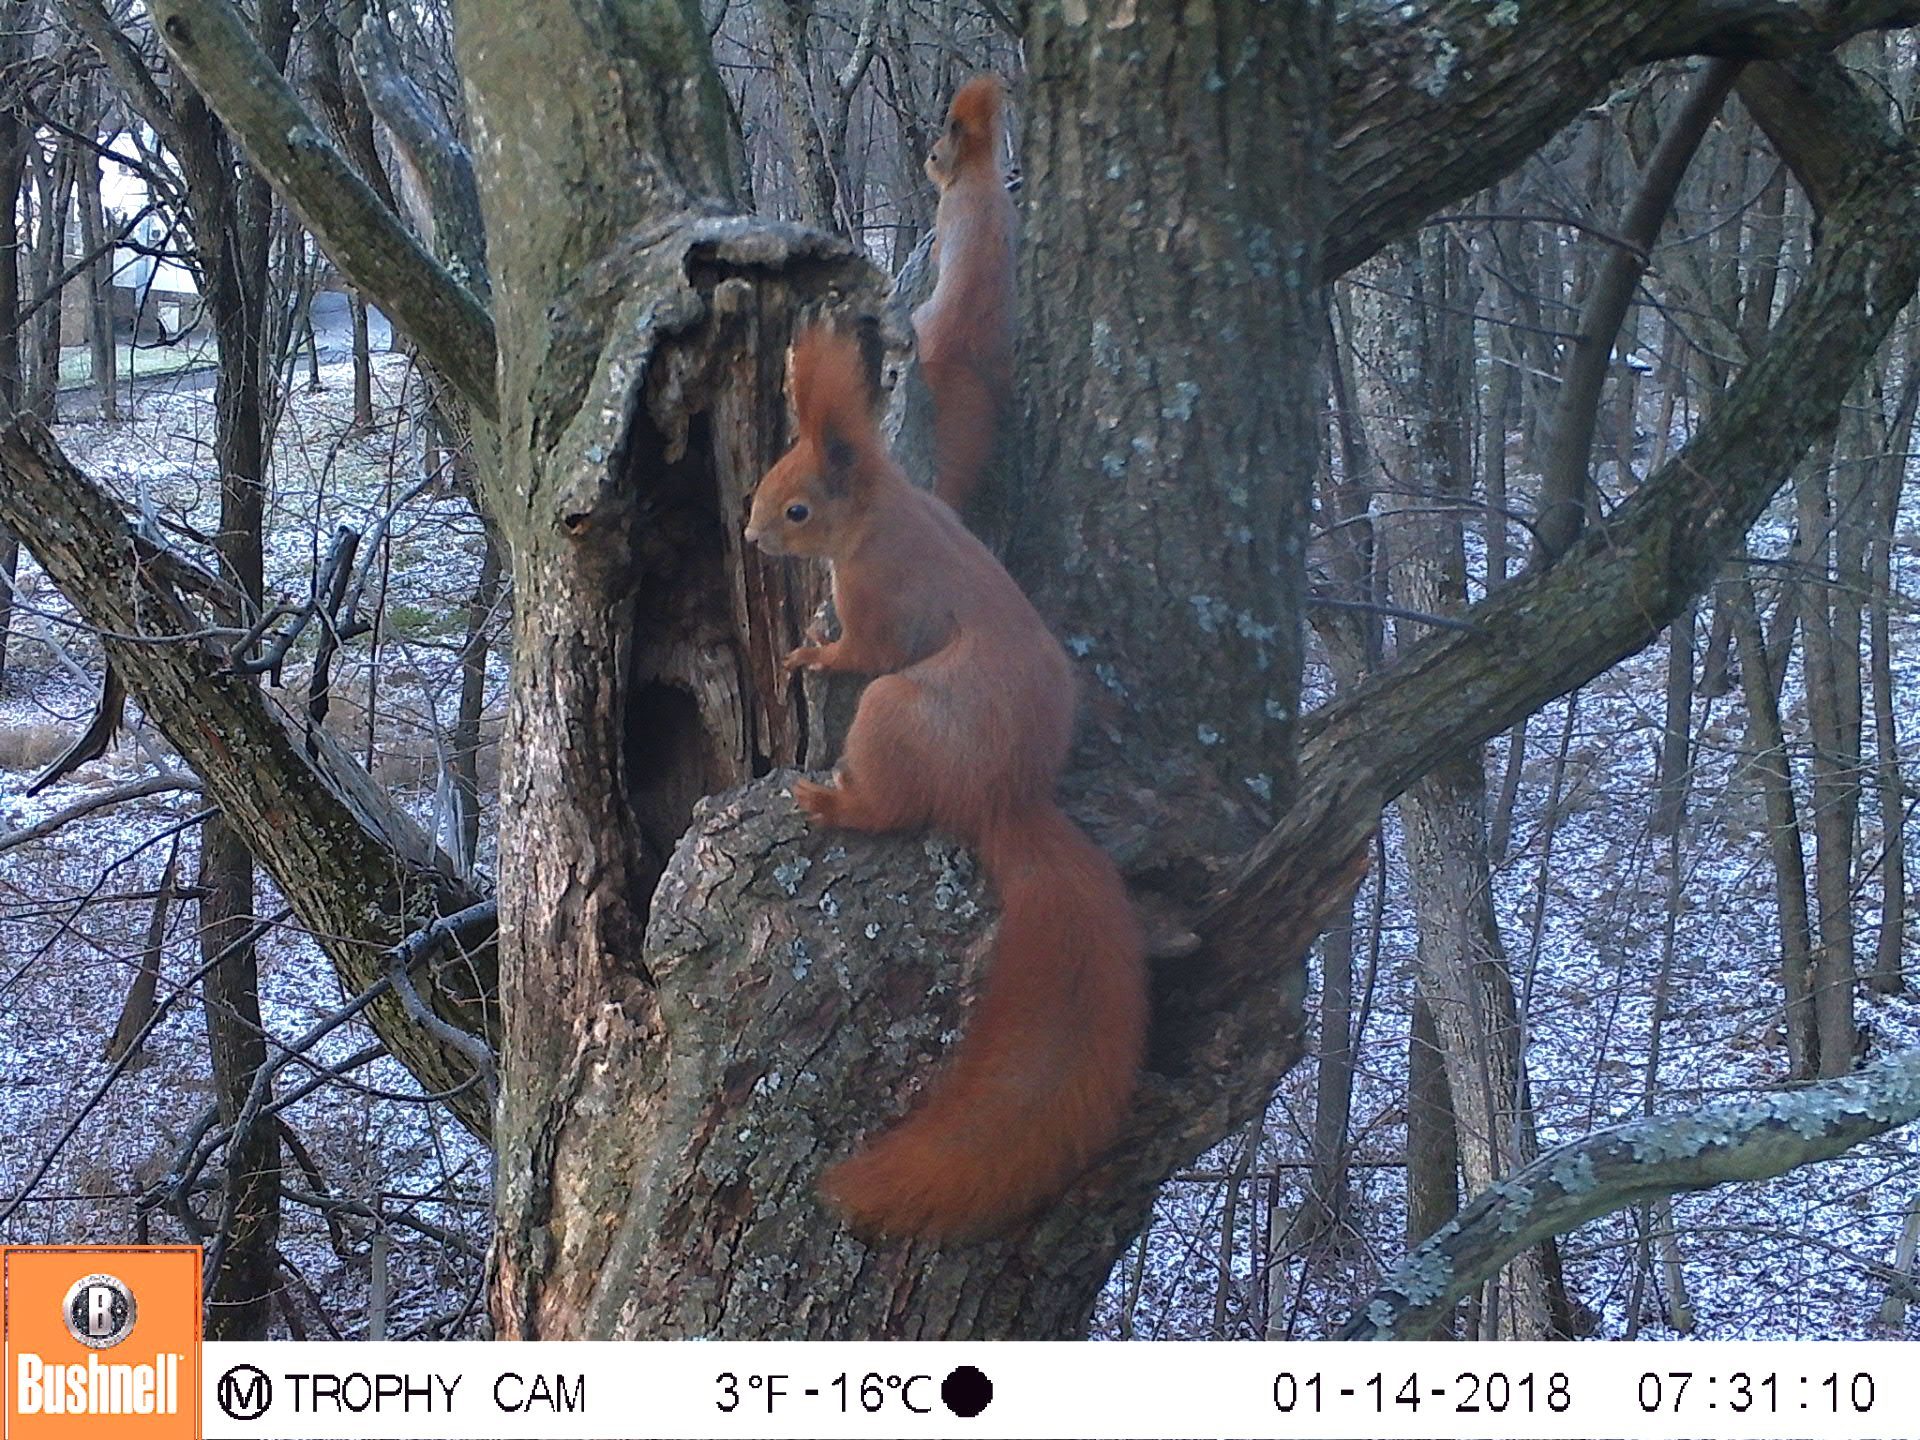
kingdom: Animalia
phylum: Chordata
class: Mammalia
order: Rodentia
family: Sciuridae
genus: Sciurus
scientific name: Sciurus vulgaris
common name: Eurasian red squirrel
